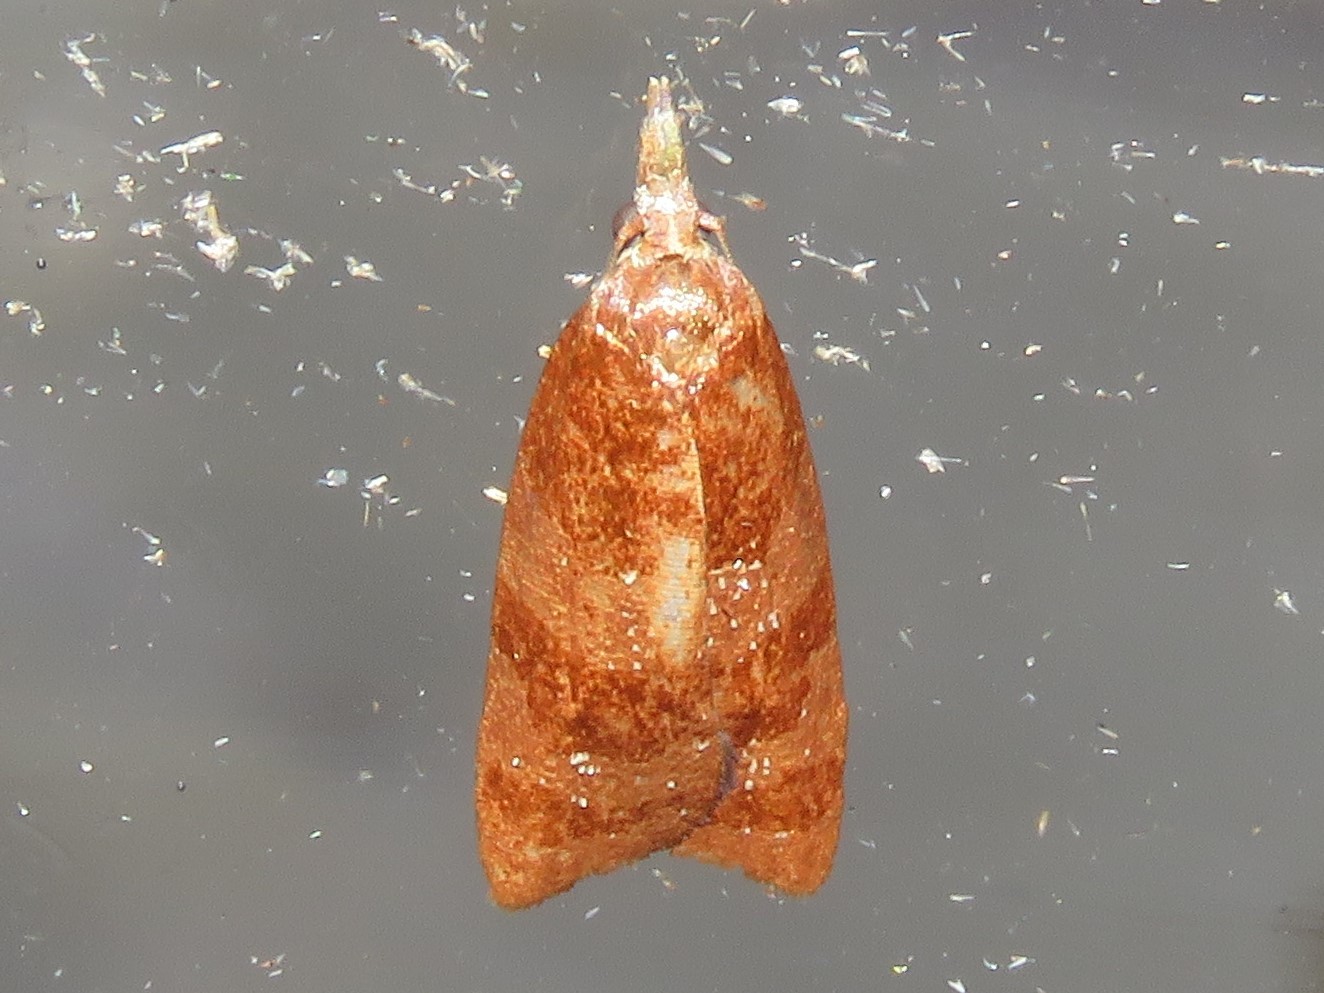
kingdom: Animalia
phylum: Arthropoda
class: Insecta
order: Lepidoptera
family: Tortricidae
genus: Cenopis
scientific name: Cenopis diluticostana
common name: Spring dead-leaf roller moth
